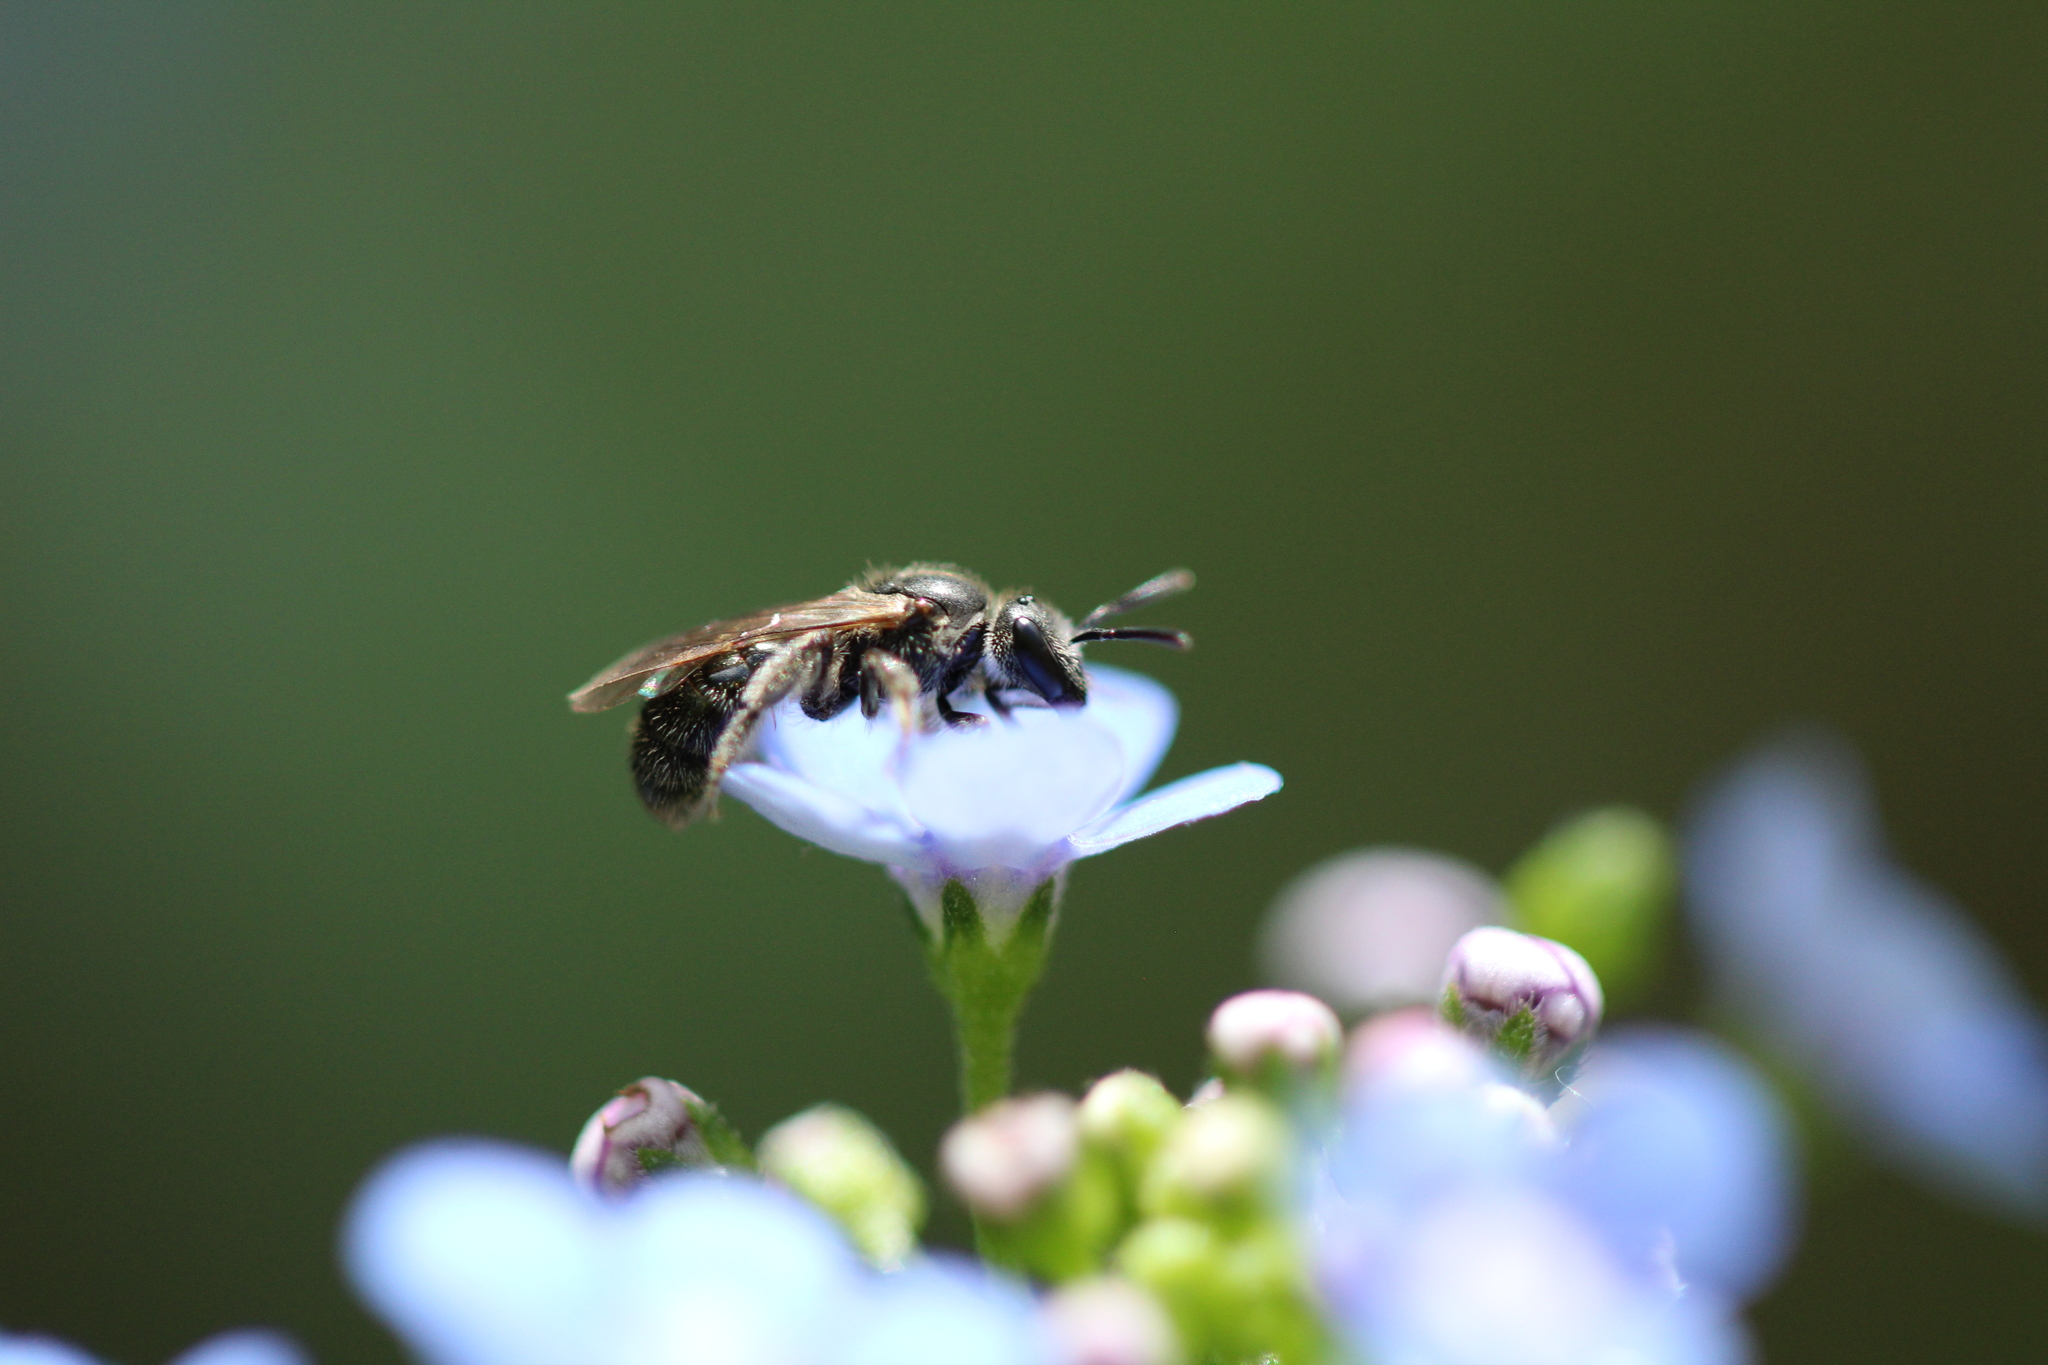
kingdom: Animalia
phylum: Arthropoda
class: Insecta
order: Hymenoptera
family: Halictidae
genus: Dialictus
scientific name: Dialictus
